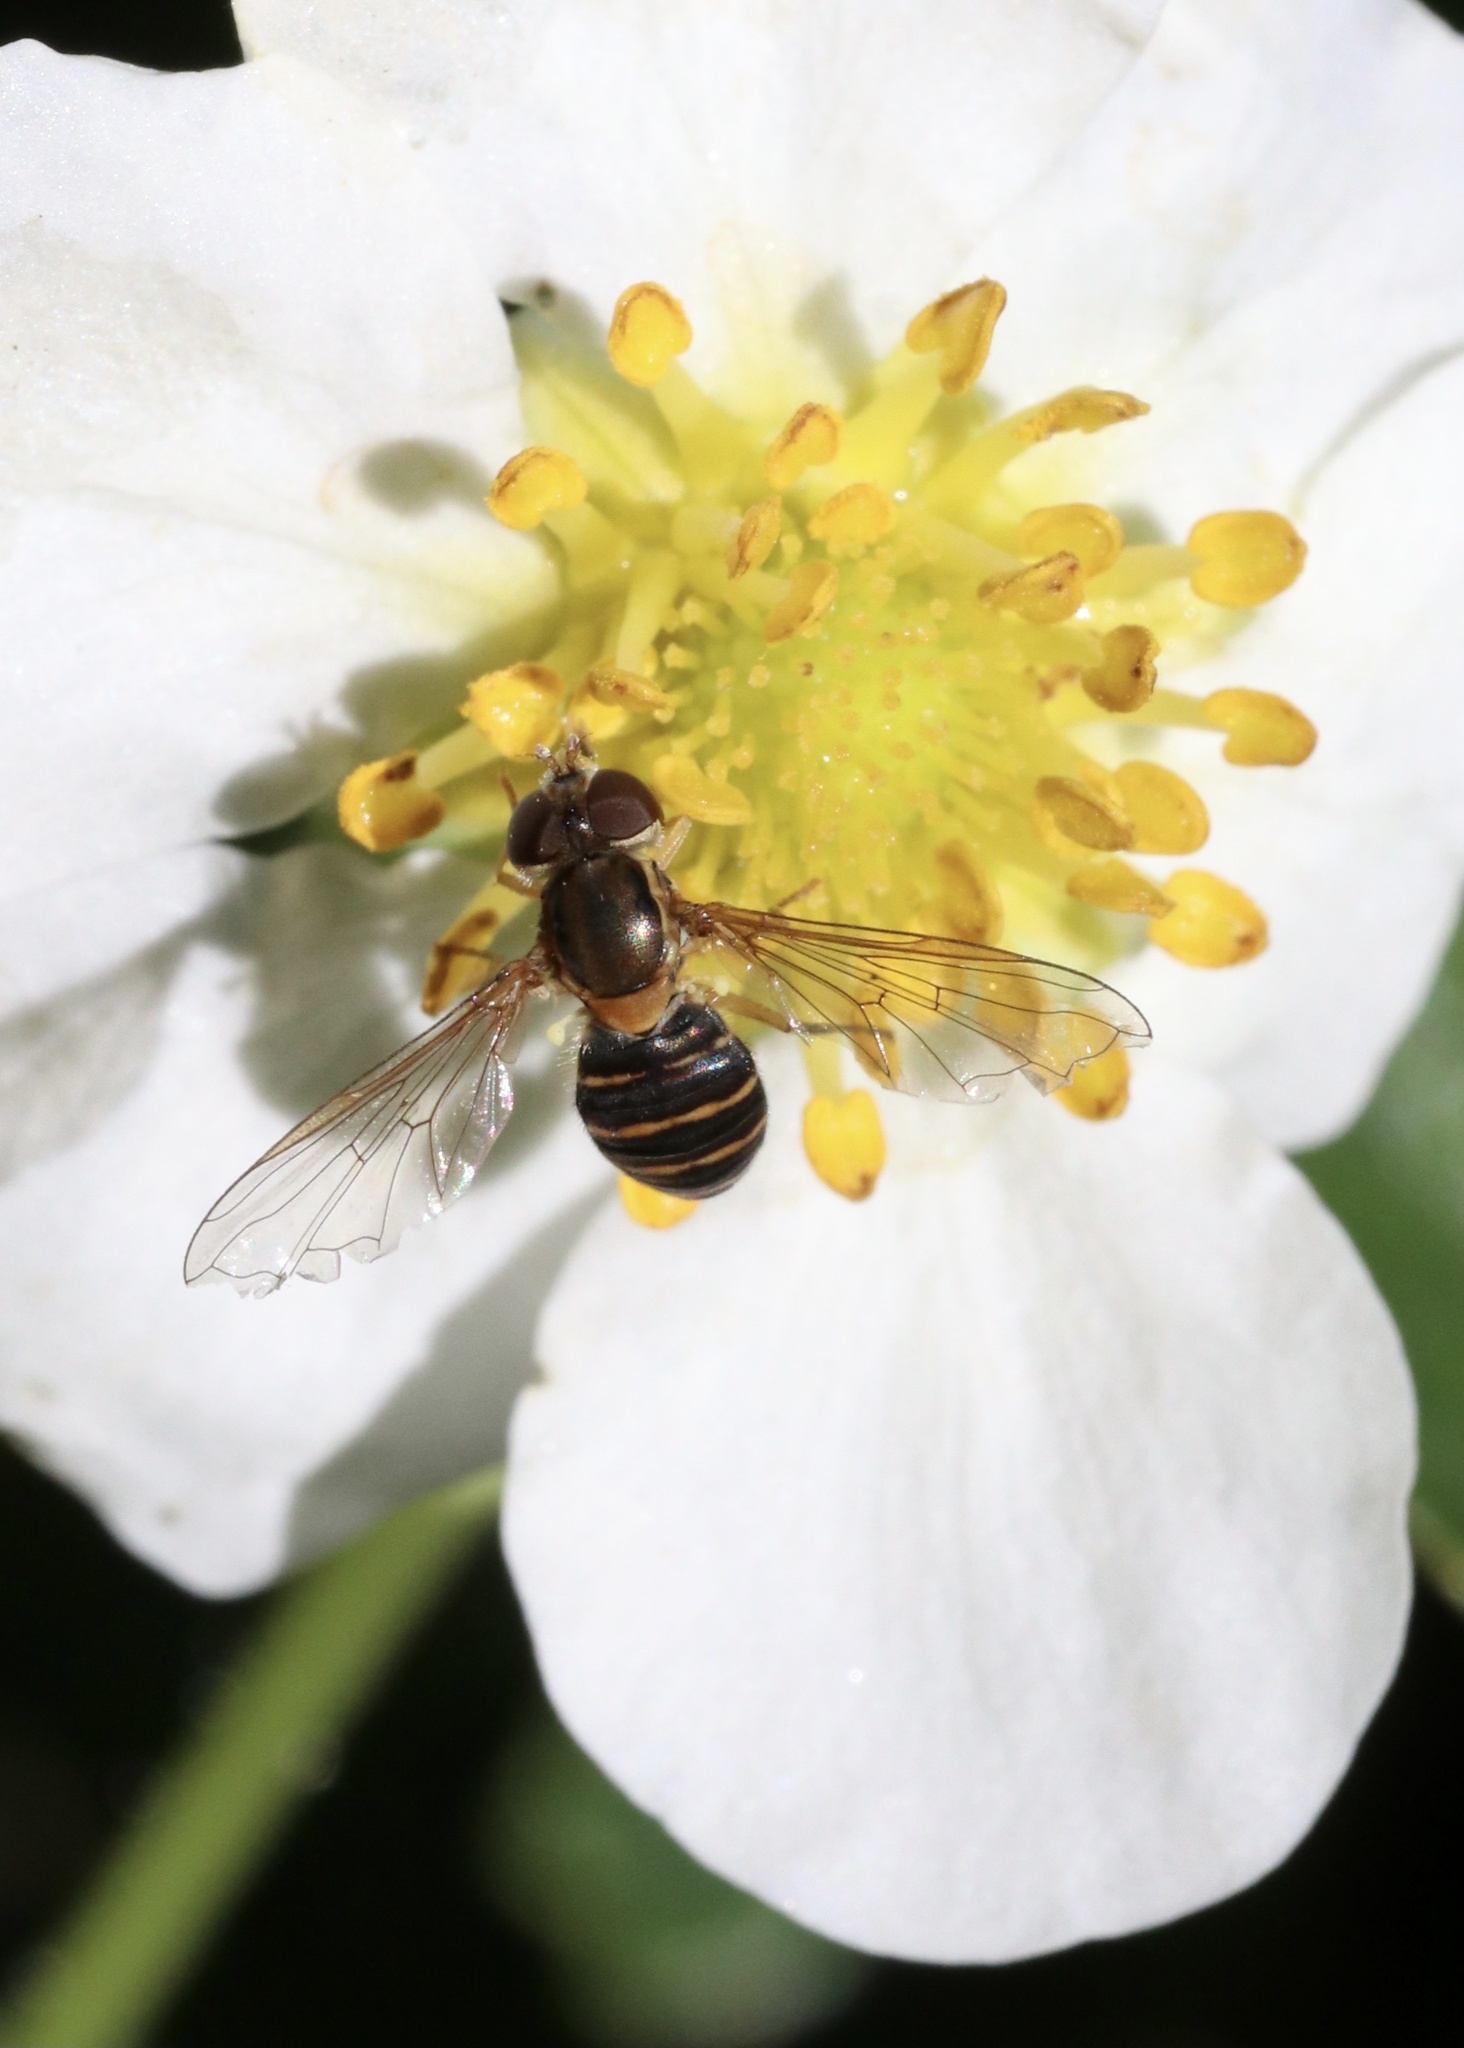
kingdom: Animalia
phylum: Arthropoda
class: Insecta
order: Diptera
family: Syrphidae
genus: Toxomerus
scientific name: Toxomerus calceolatus
